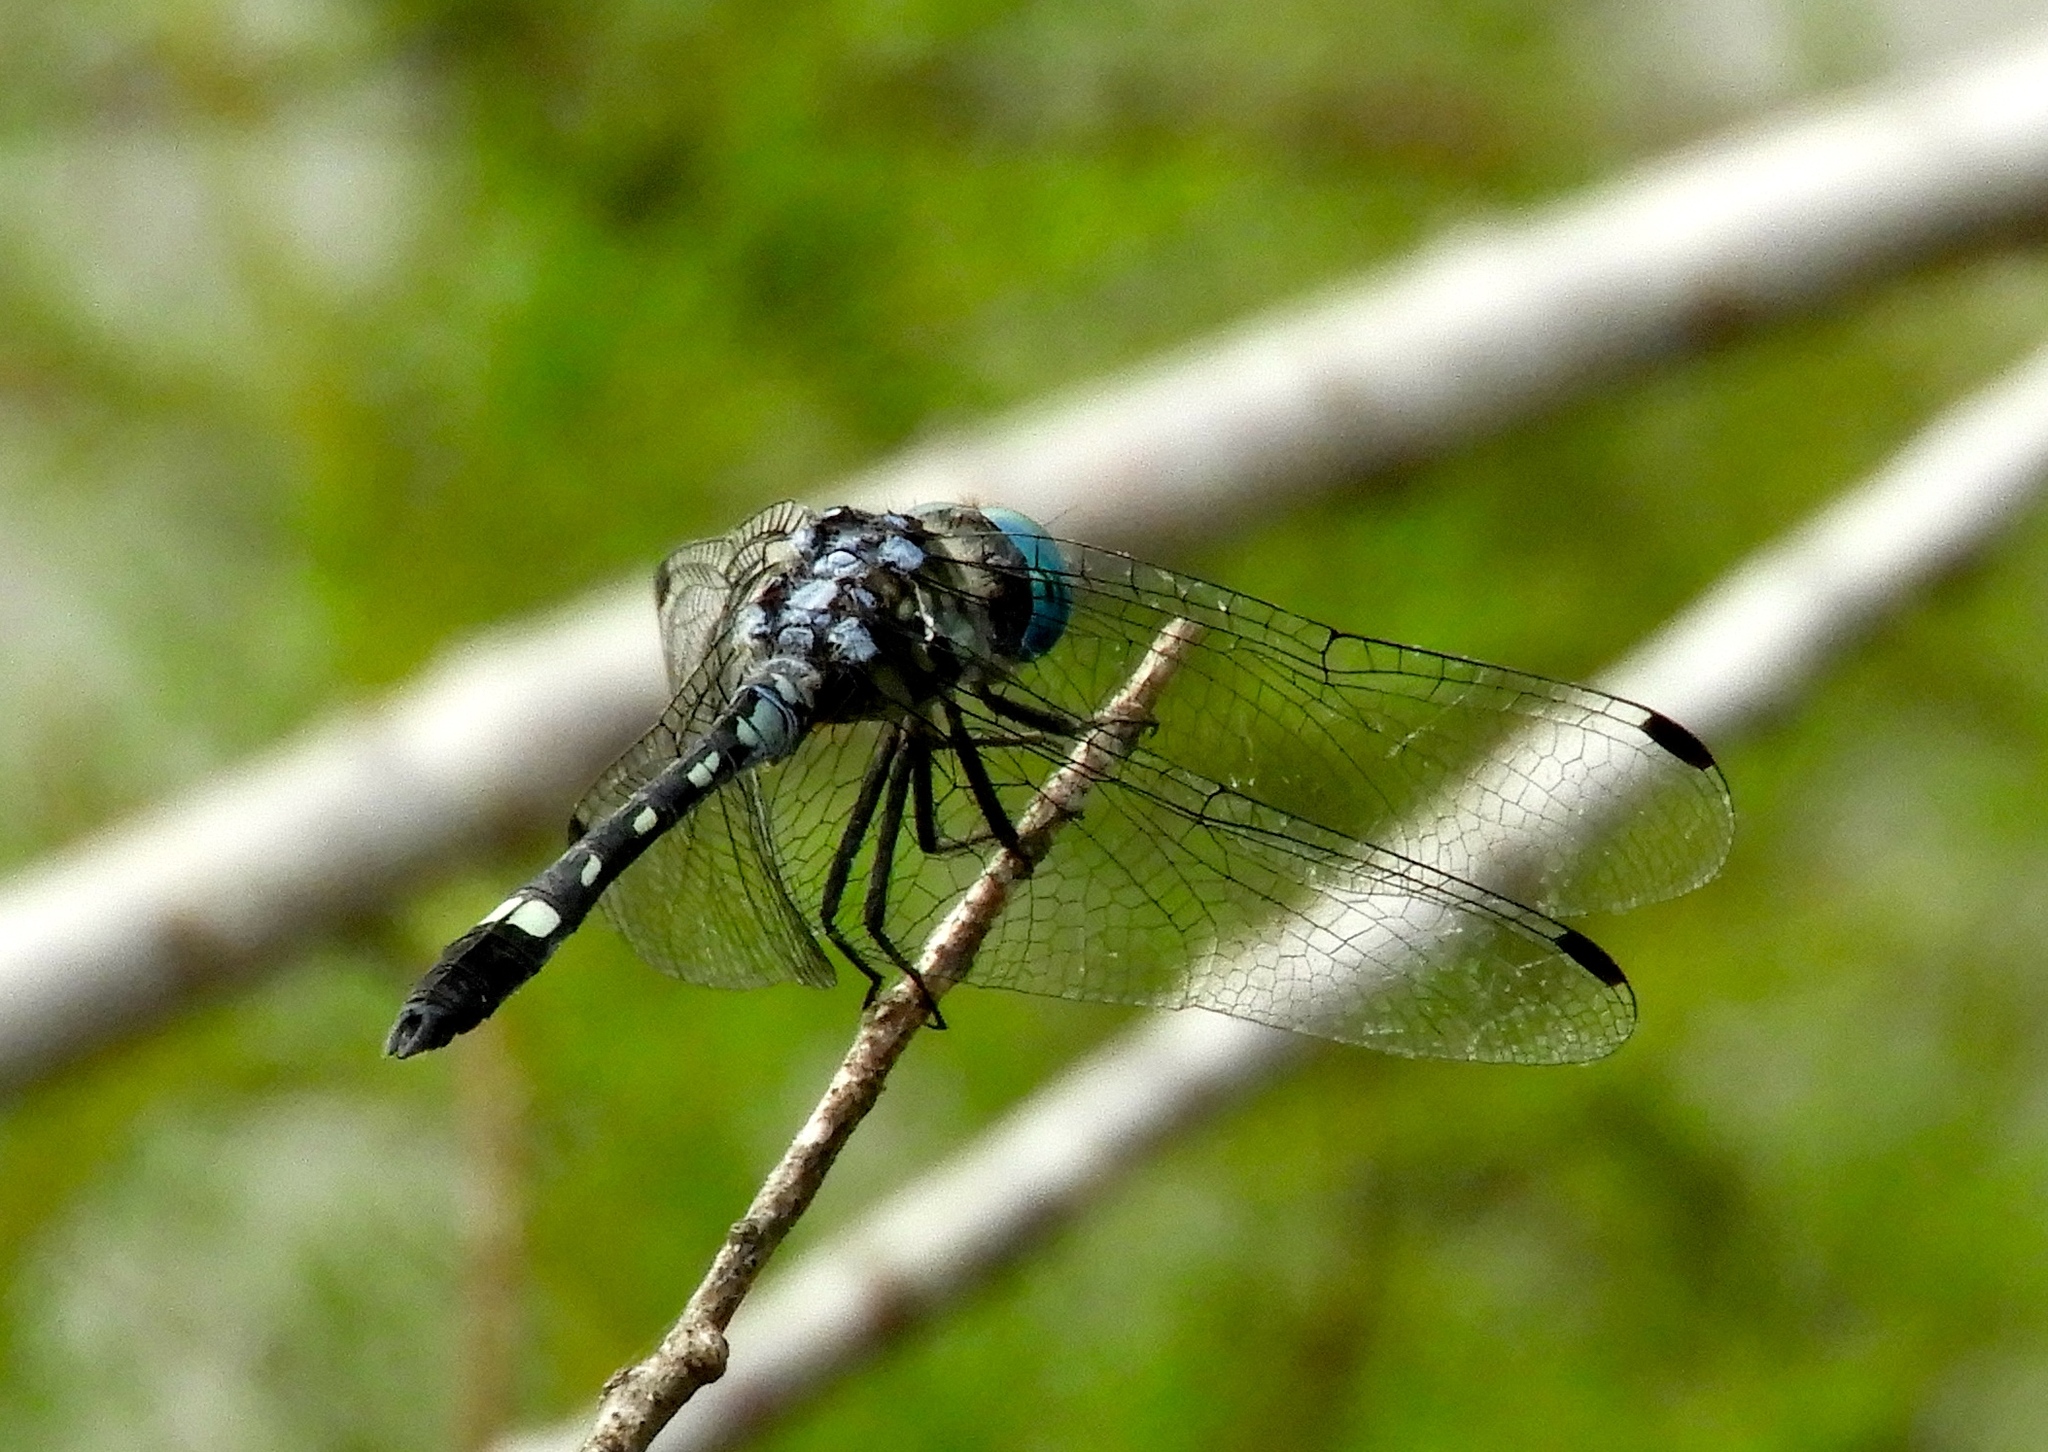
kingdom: Animalia
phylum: Arthropoda
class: Insecta
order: Odonata
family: Libellulidae
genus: Micrathyria
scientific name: Micrathyria hagenii
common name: Thornbush dasher
